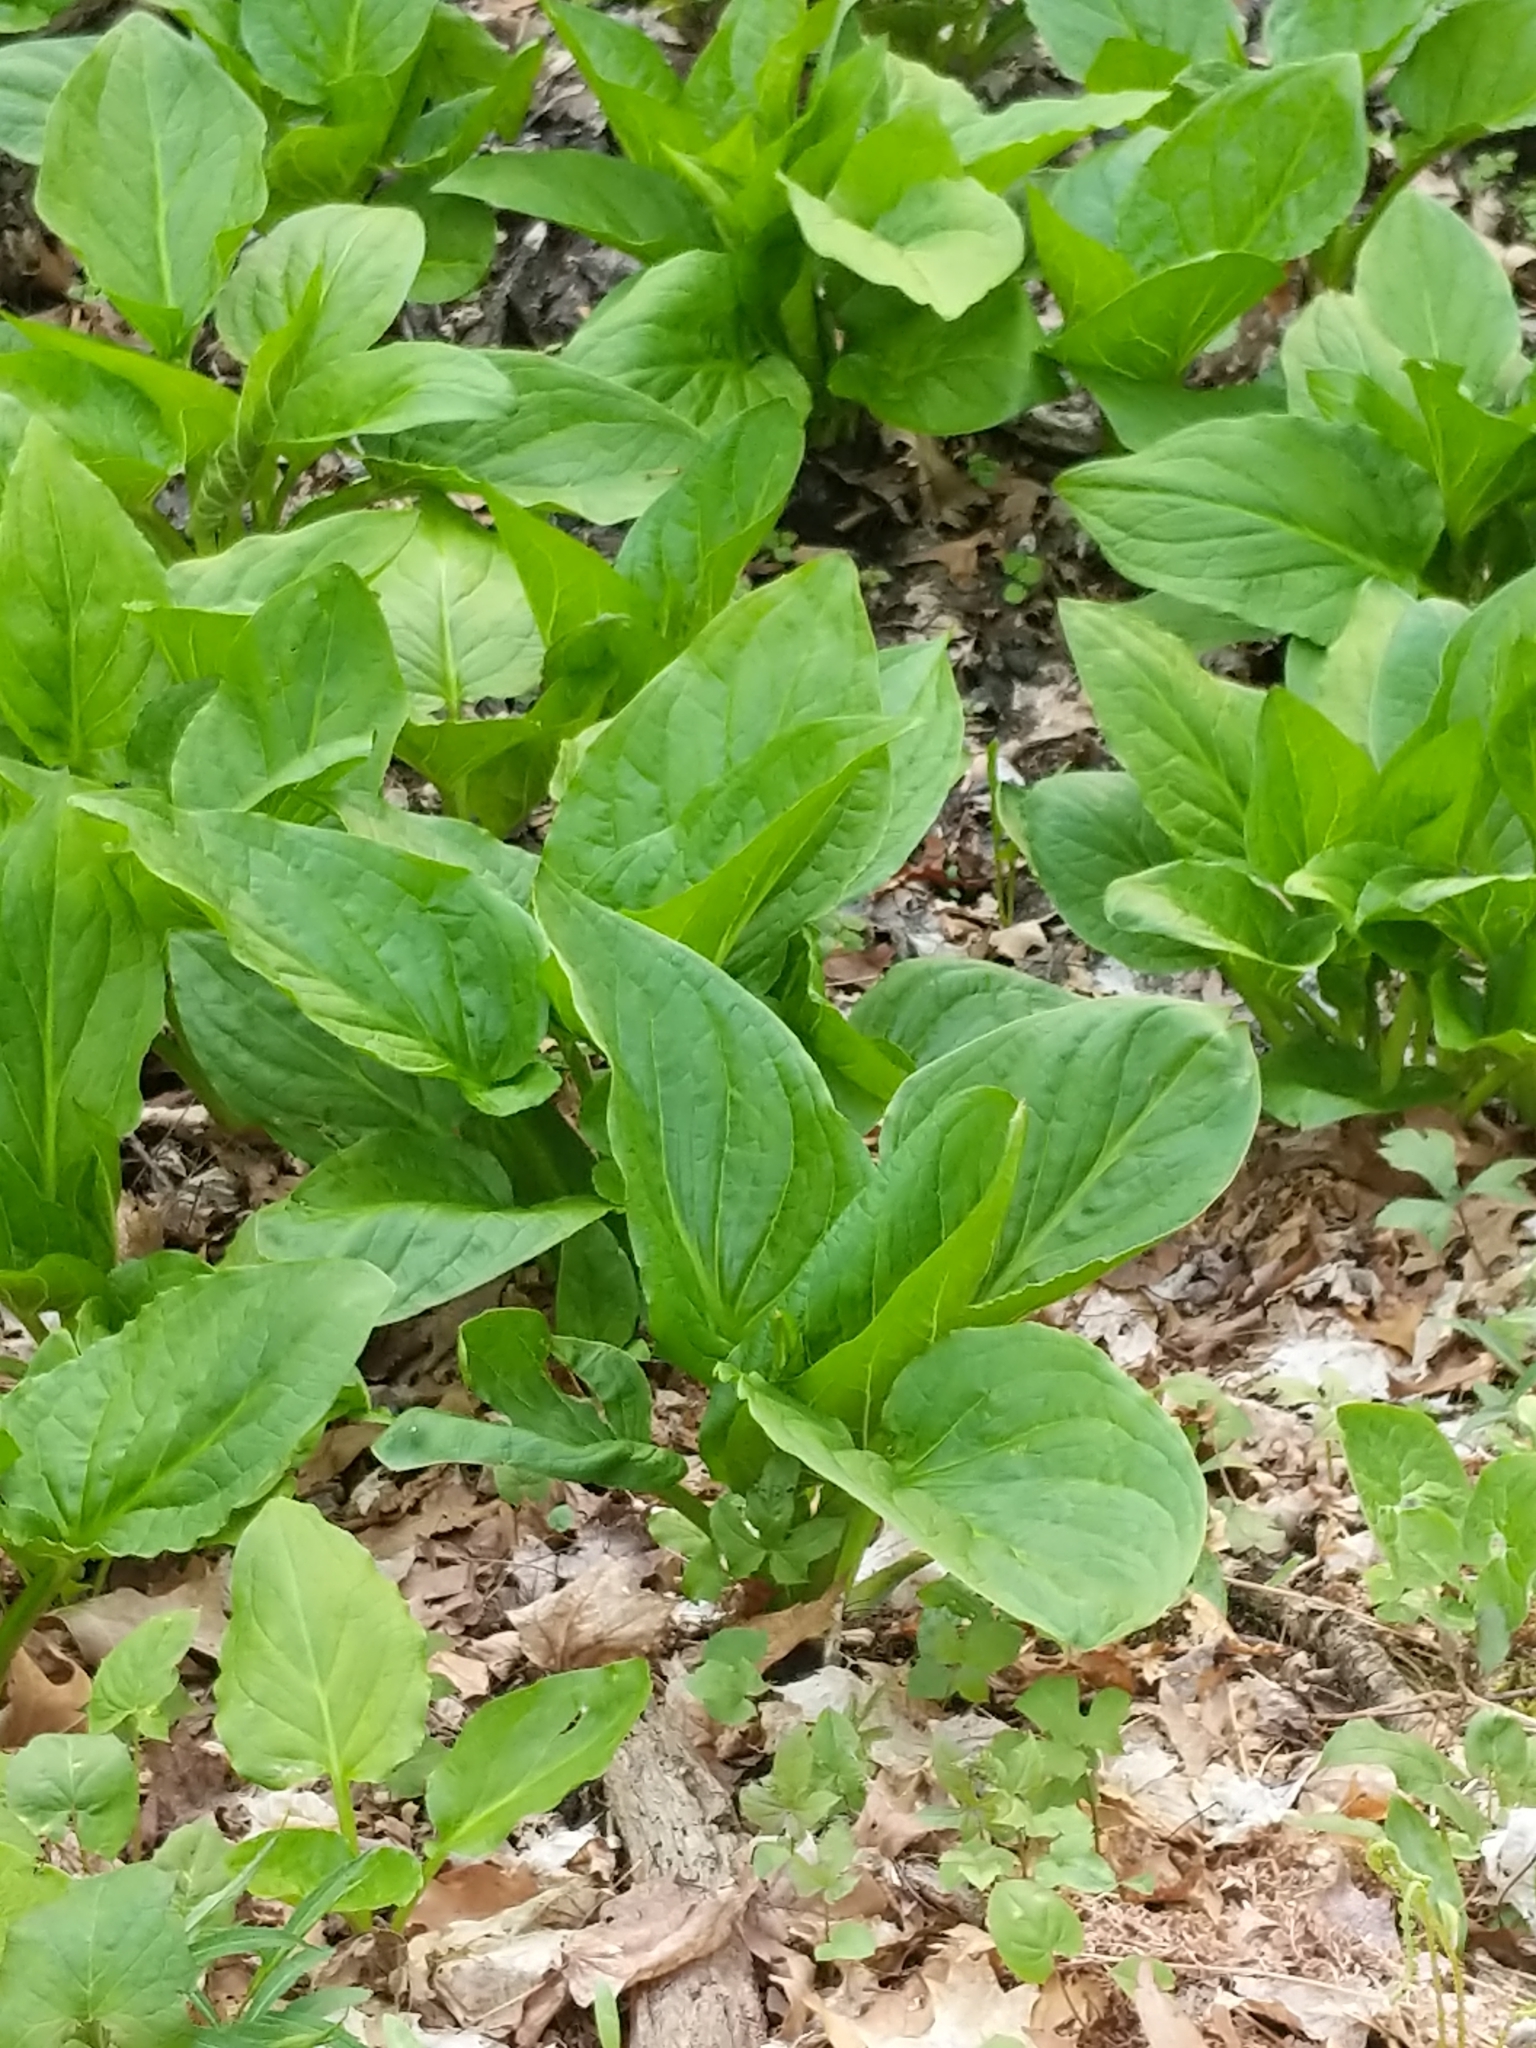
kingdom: Plantae
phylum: Tracheophyta
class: Liliopsida
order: Alismatales
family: Araceae
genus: Symplocarpus
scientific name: Symplocarpus foetidus
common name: Eastern skunk cabbage
